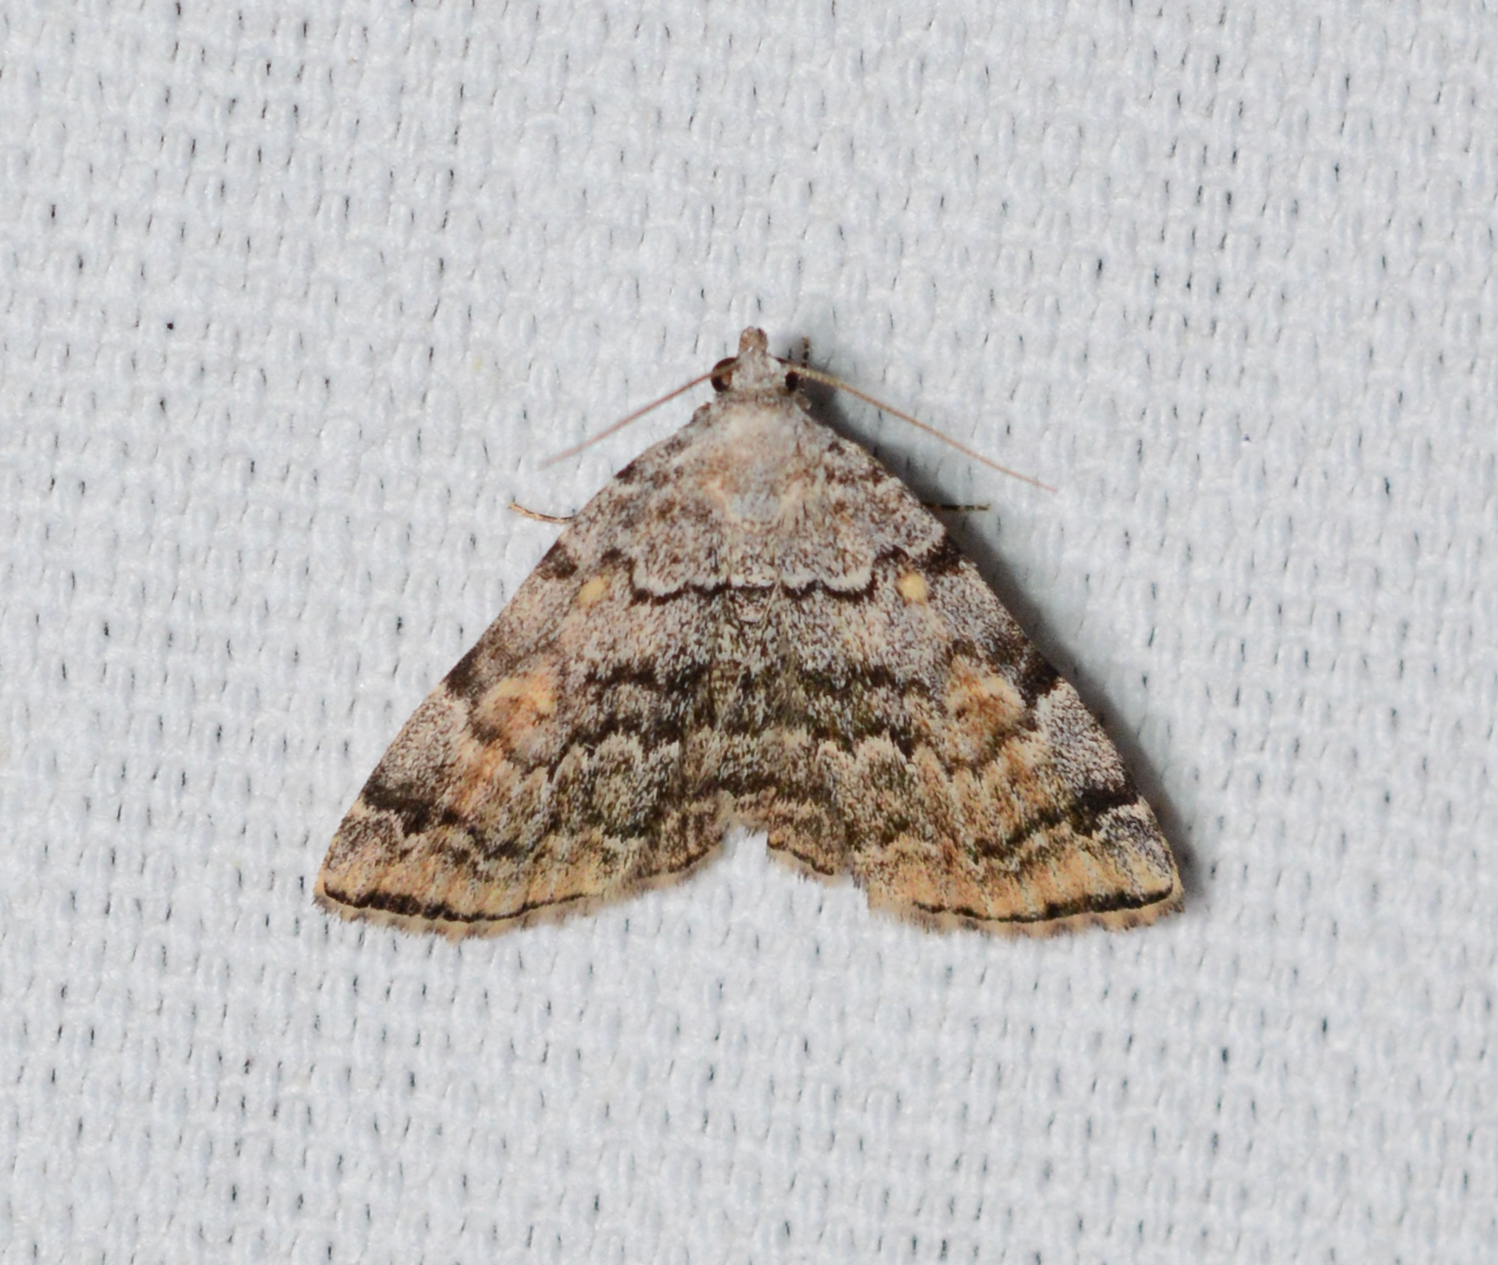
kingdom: Animalia
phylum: Arthropoda
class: Insecta
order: Lepidoptera
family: Erebidae
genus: Idia
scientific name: Idia americalis
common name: American idia moth
